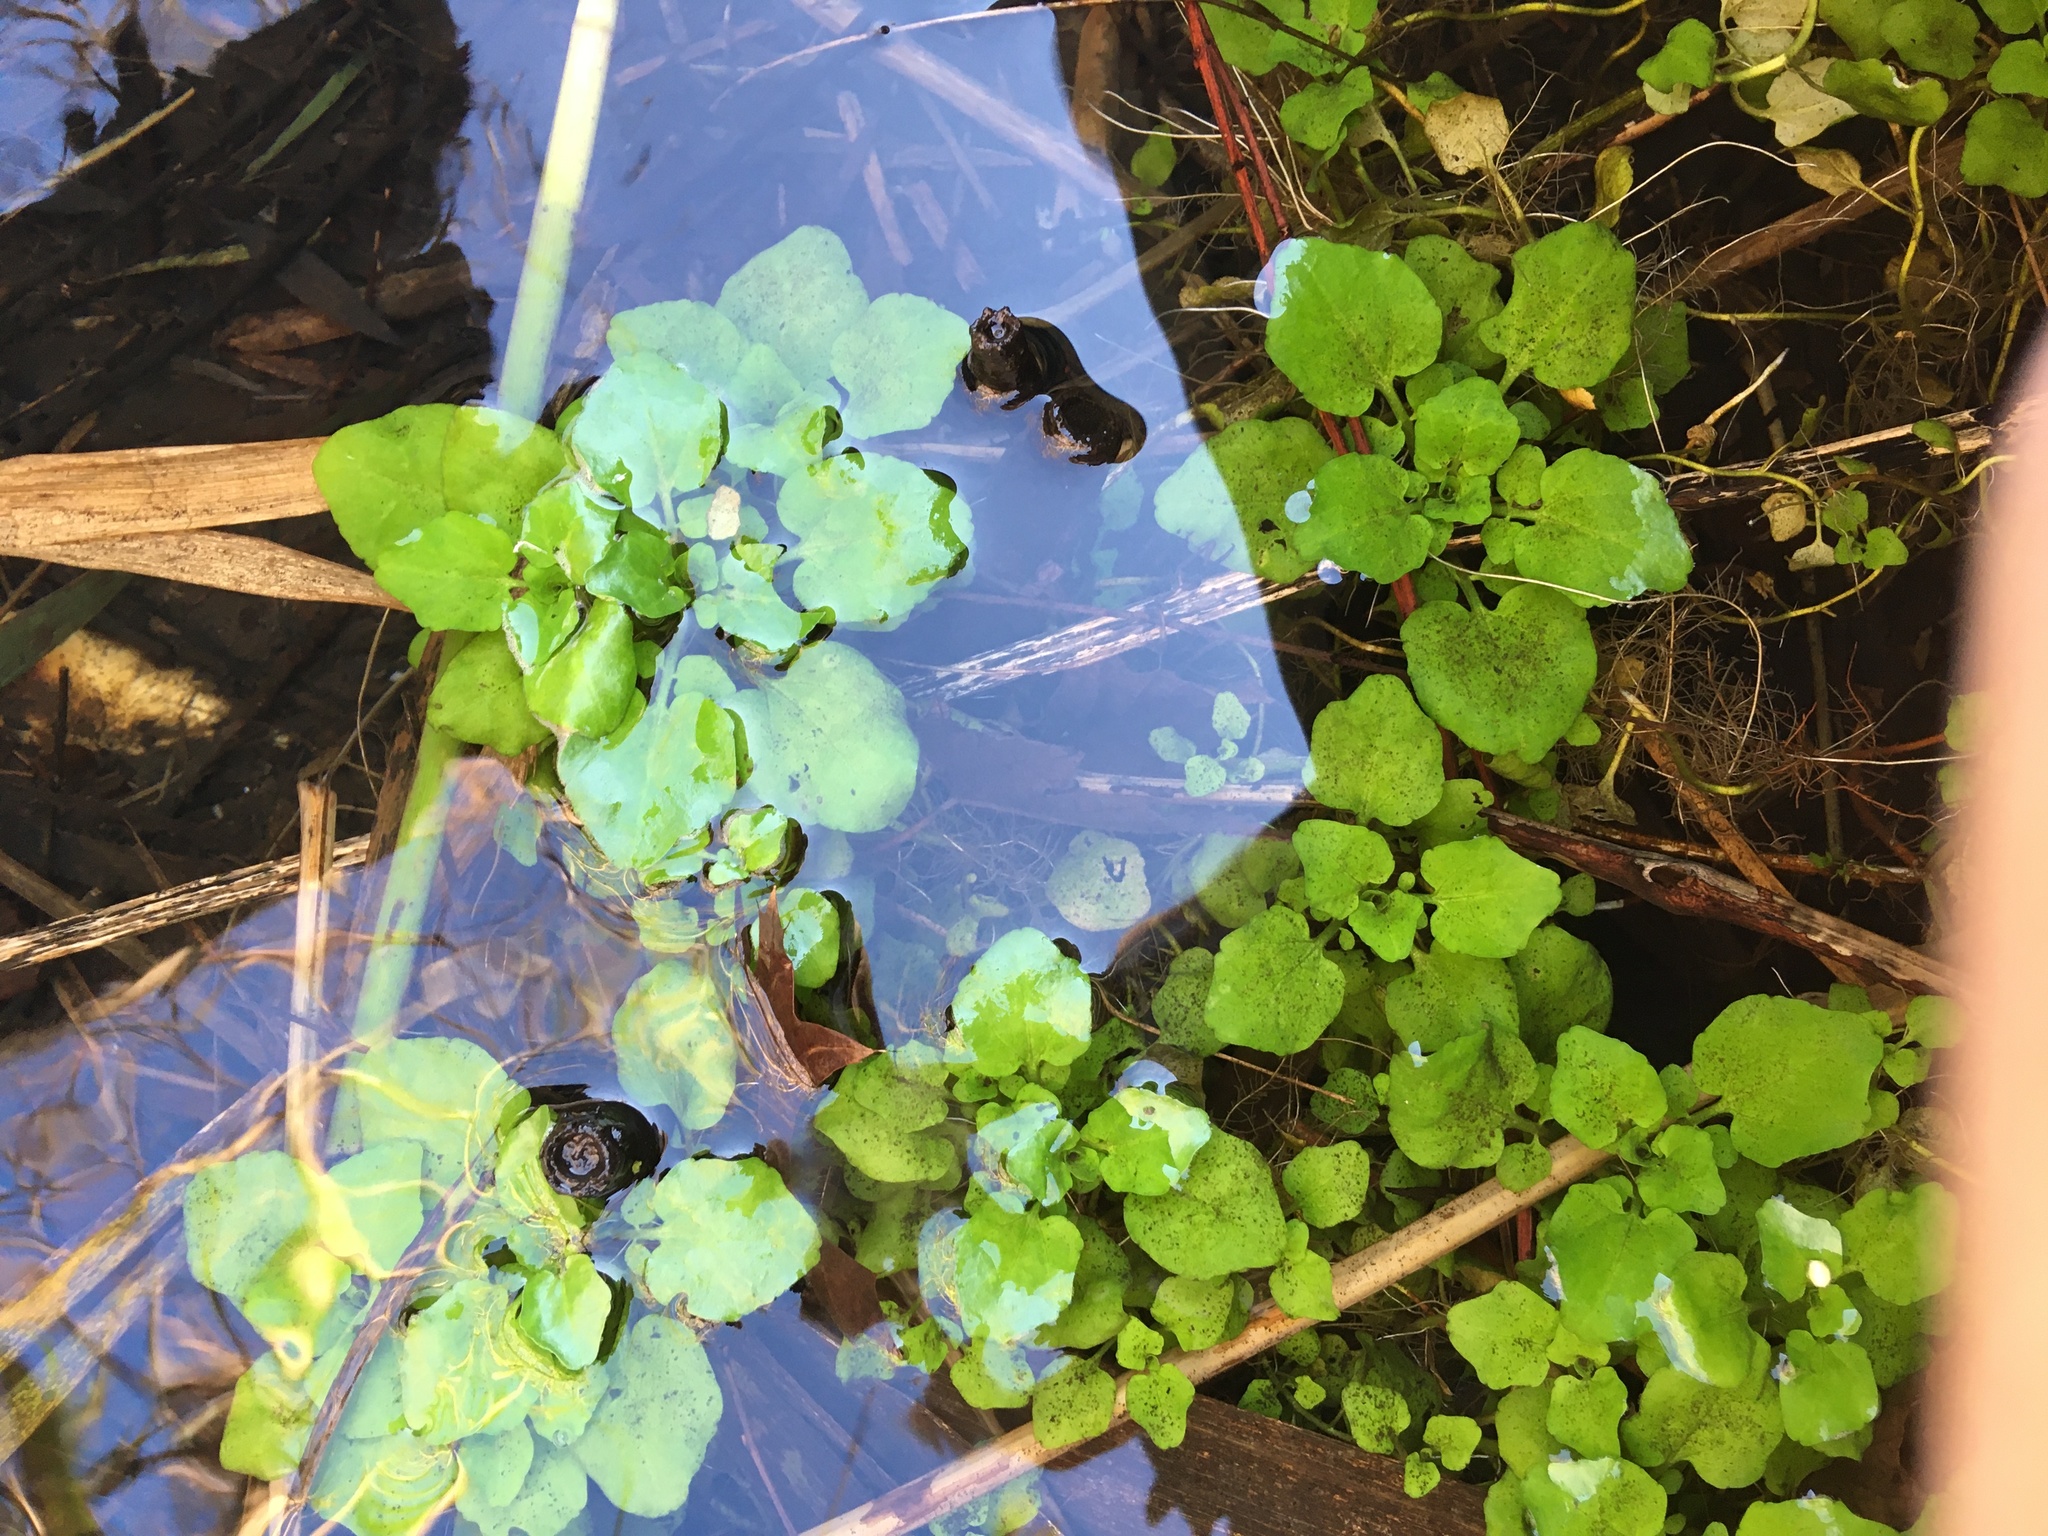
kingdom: Plantae
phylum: Tracheophyta
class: Magnoliopsida
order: Brassicales
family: Brassicaceae
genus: Nasturtium
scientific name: Nasturtium officinale
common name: Watercress
